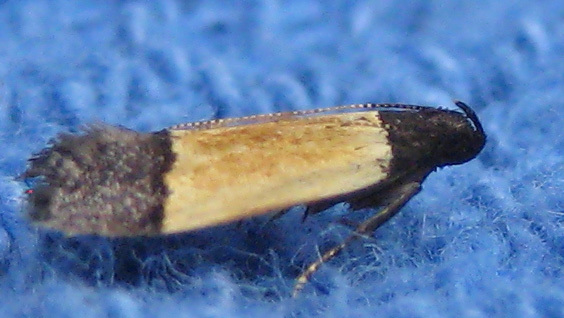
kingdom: Animalia
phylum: Arthropoda
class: Insecta
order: Lepidoptera
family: Gelechiidae
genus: Anacampsis
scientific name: Anacampsis coverdalella
